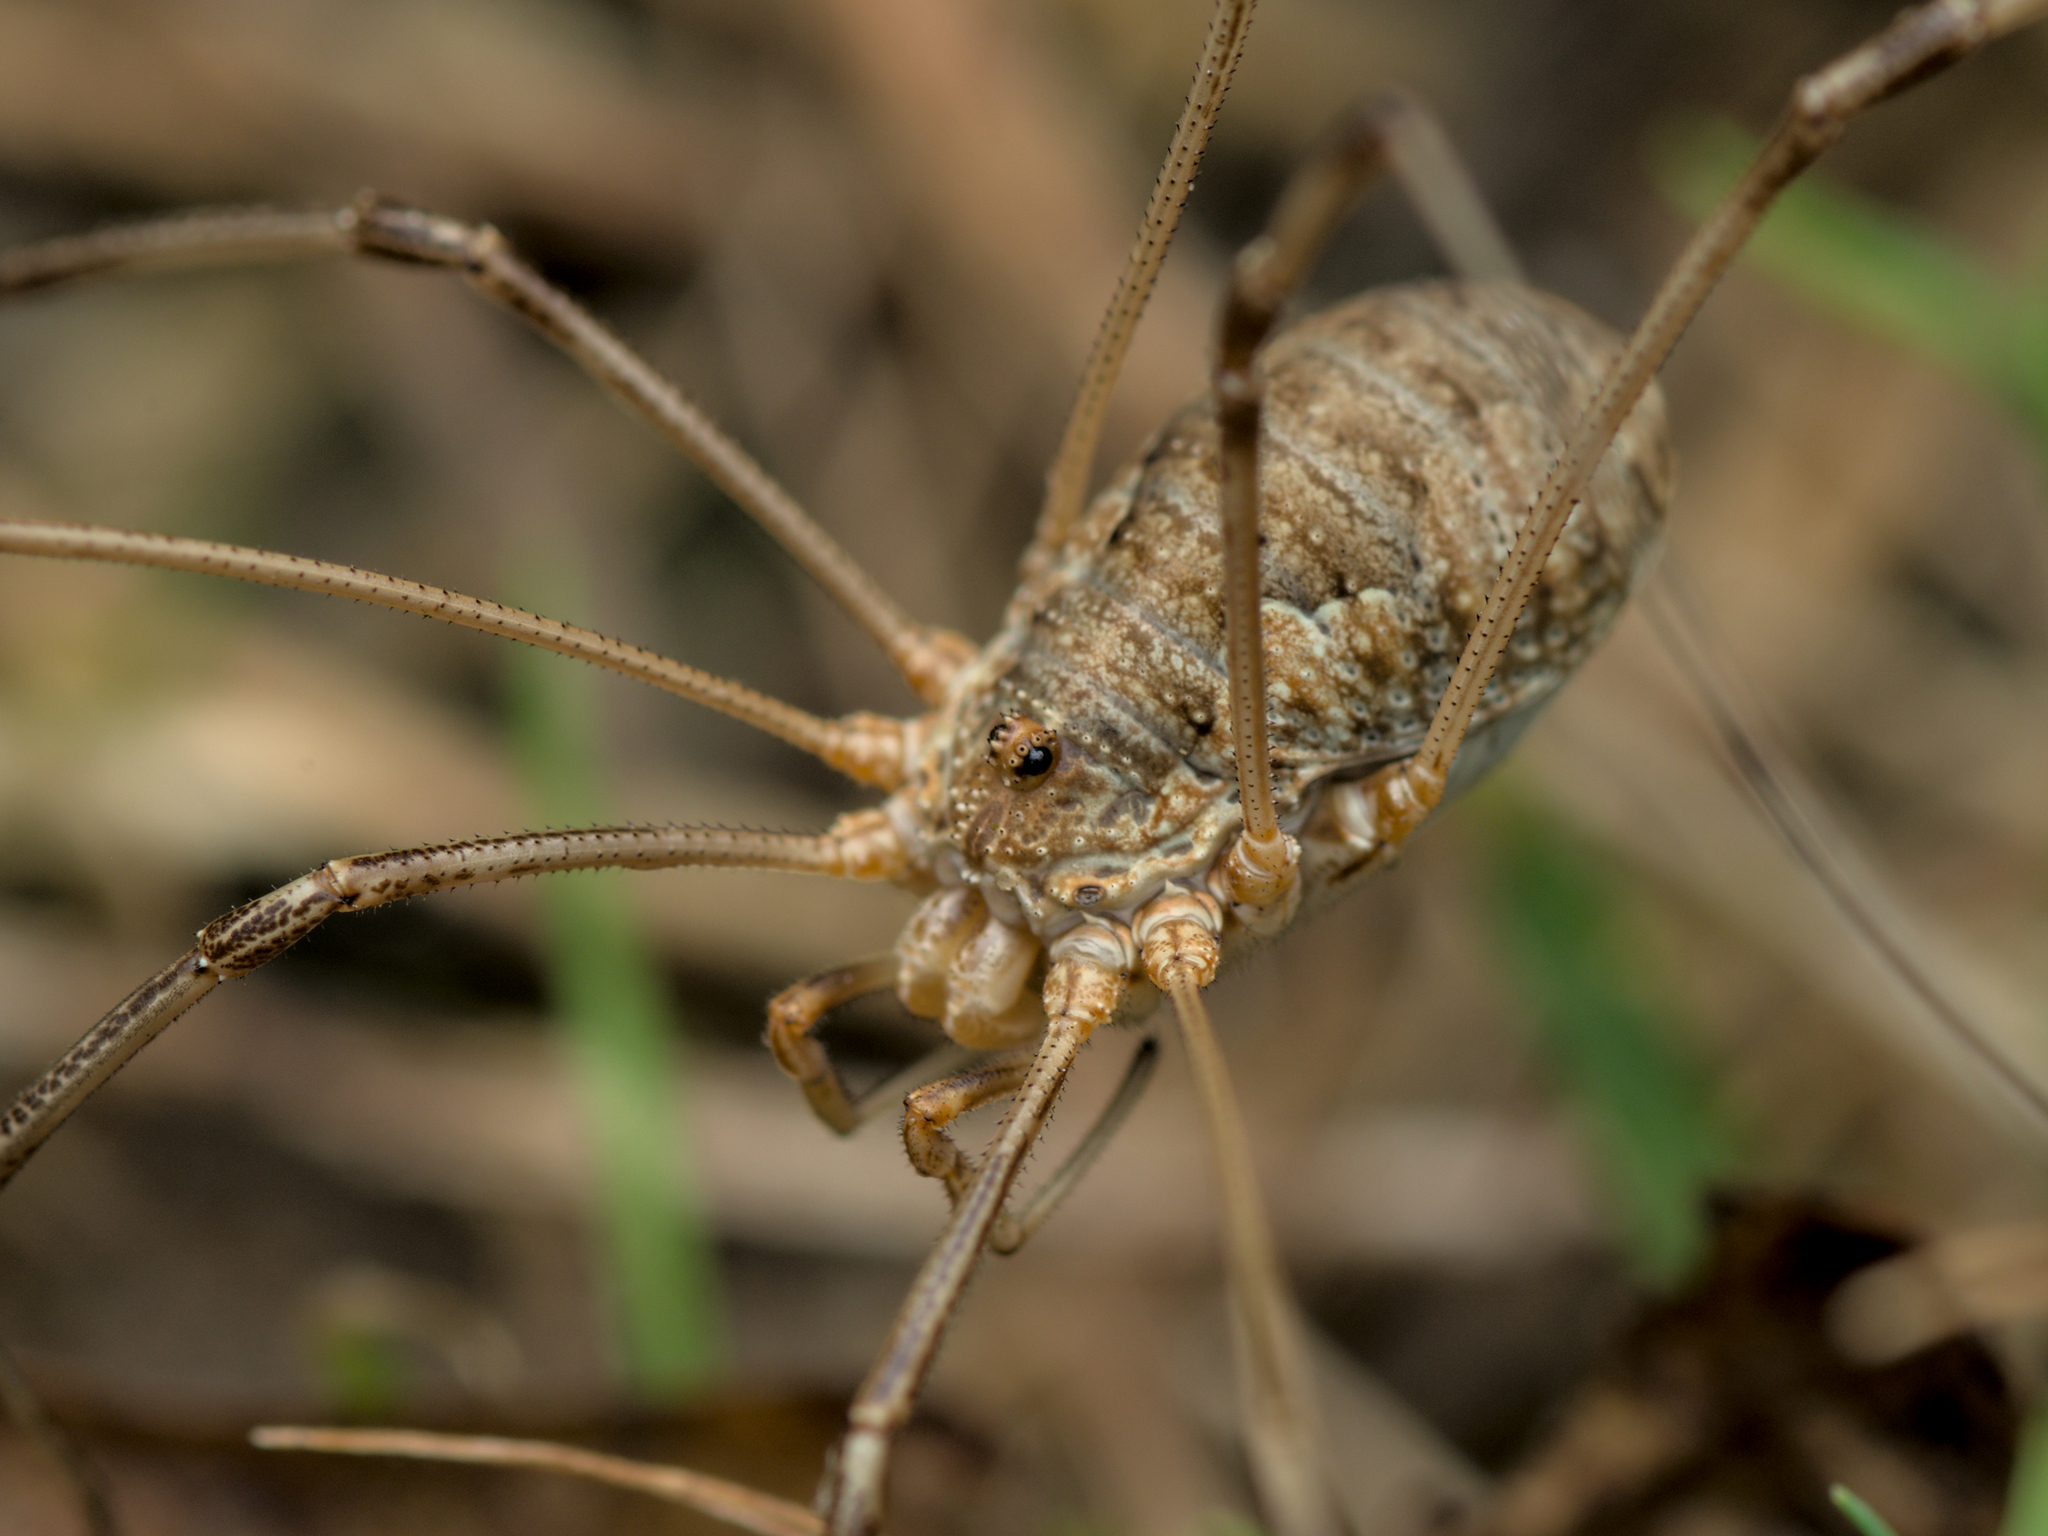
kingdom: Animalia
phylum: Arthropoda
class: Arachnida
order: Opiliones
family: Phalangiidae
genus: Phalangium
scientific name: Phalangium opilio
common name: Daddy longleg
